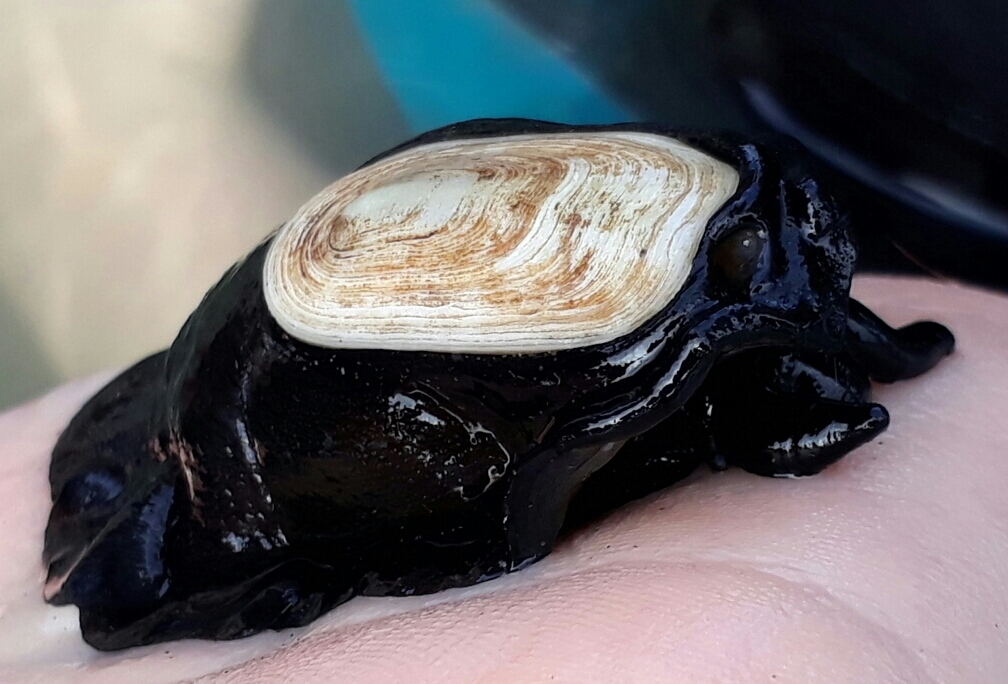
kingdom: Animalia
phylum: Mollusca
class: Gastropoda
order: Lepetellida
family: Fissurellidae
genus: Scutus
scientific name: Scutus breviculus
